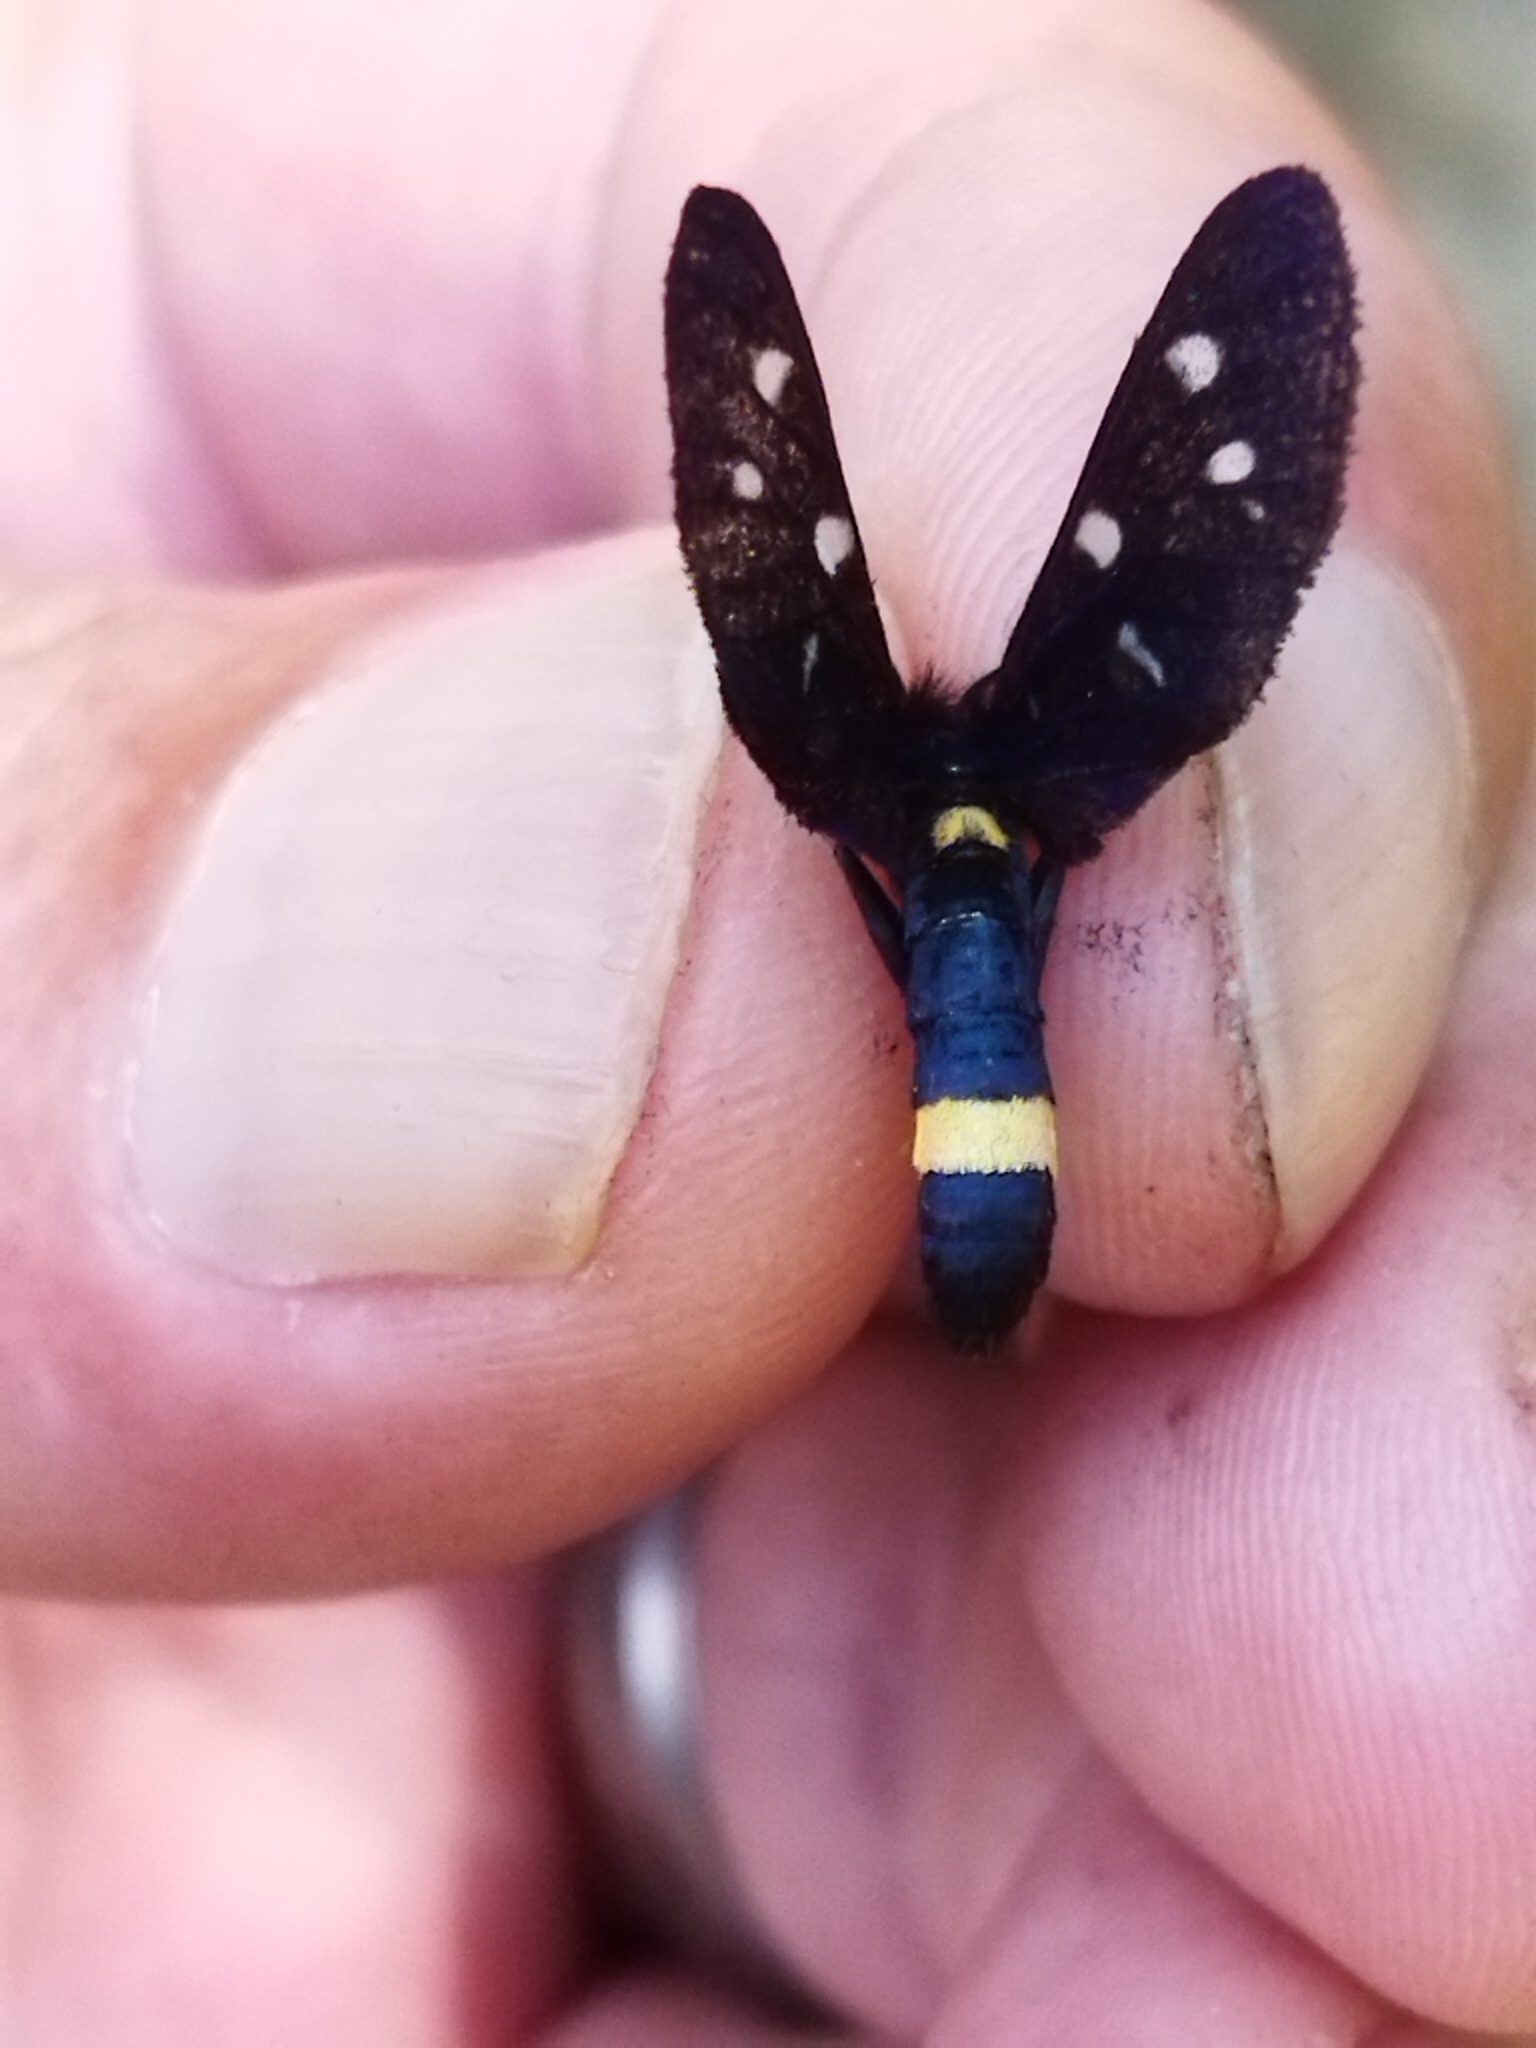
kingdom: Animalia
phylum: Arthropoda
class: Insecta
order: Lepidoptera
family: Erebidae
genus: Amata
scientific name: Amata phegea
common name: Nine-spotted
